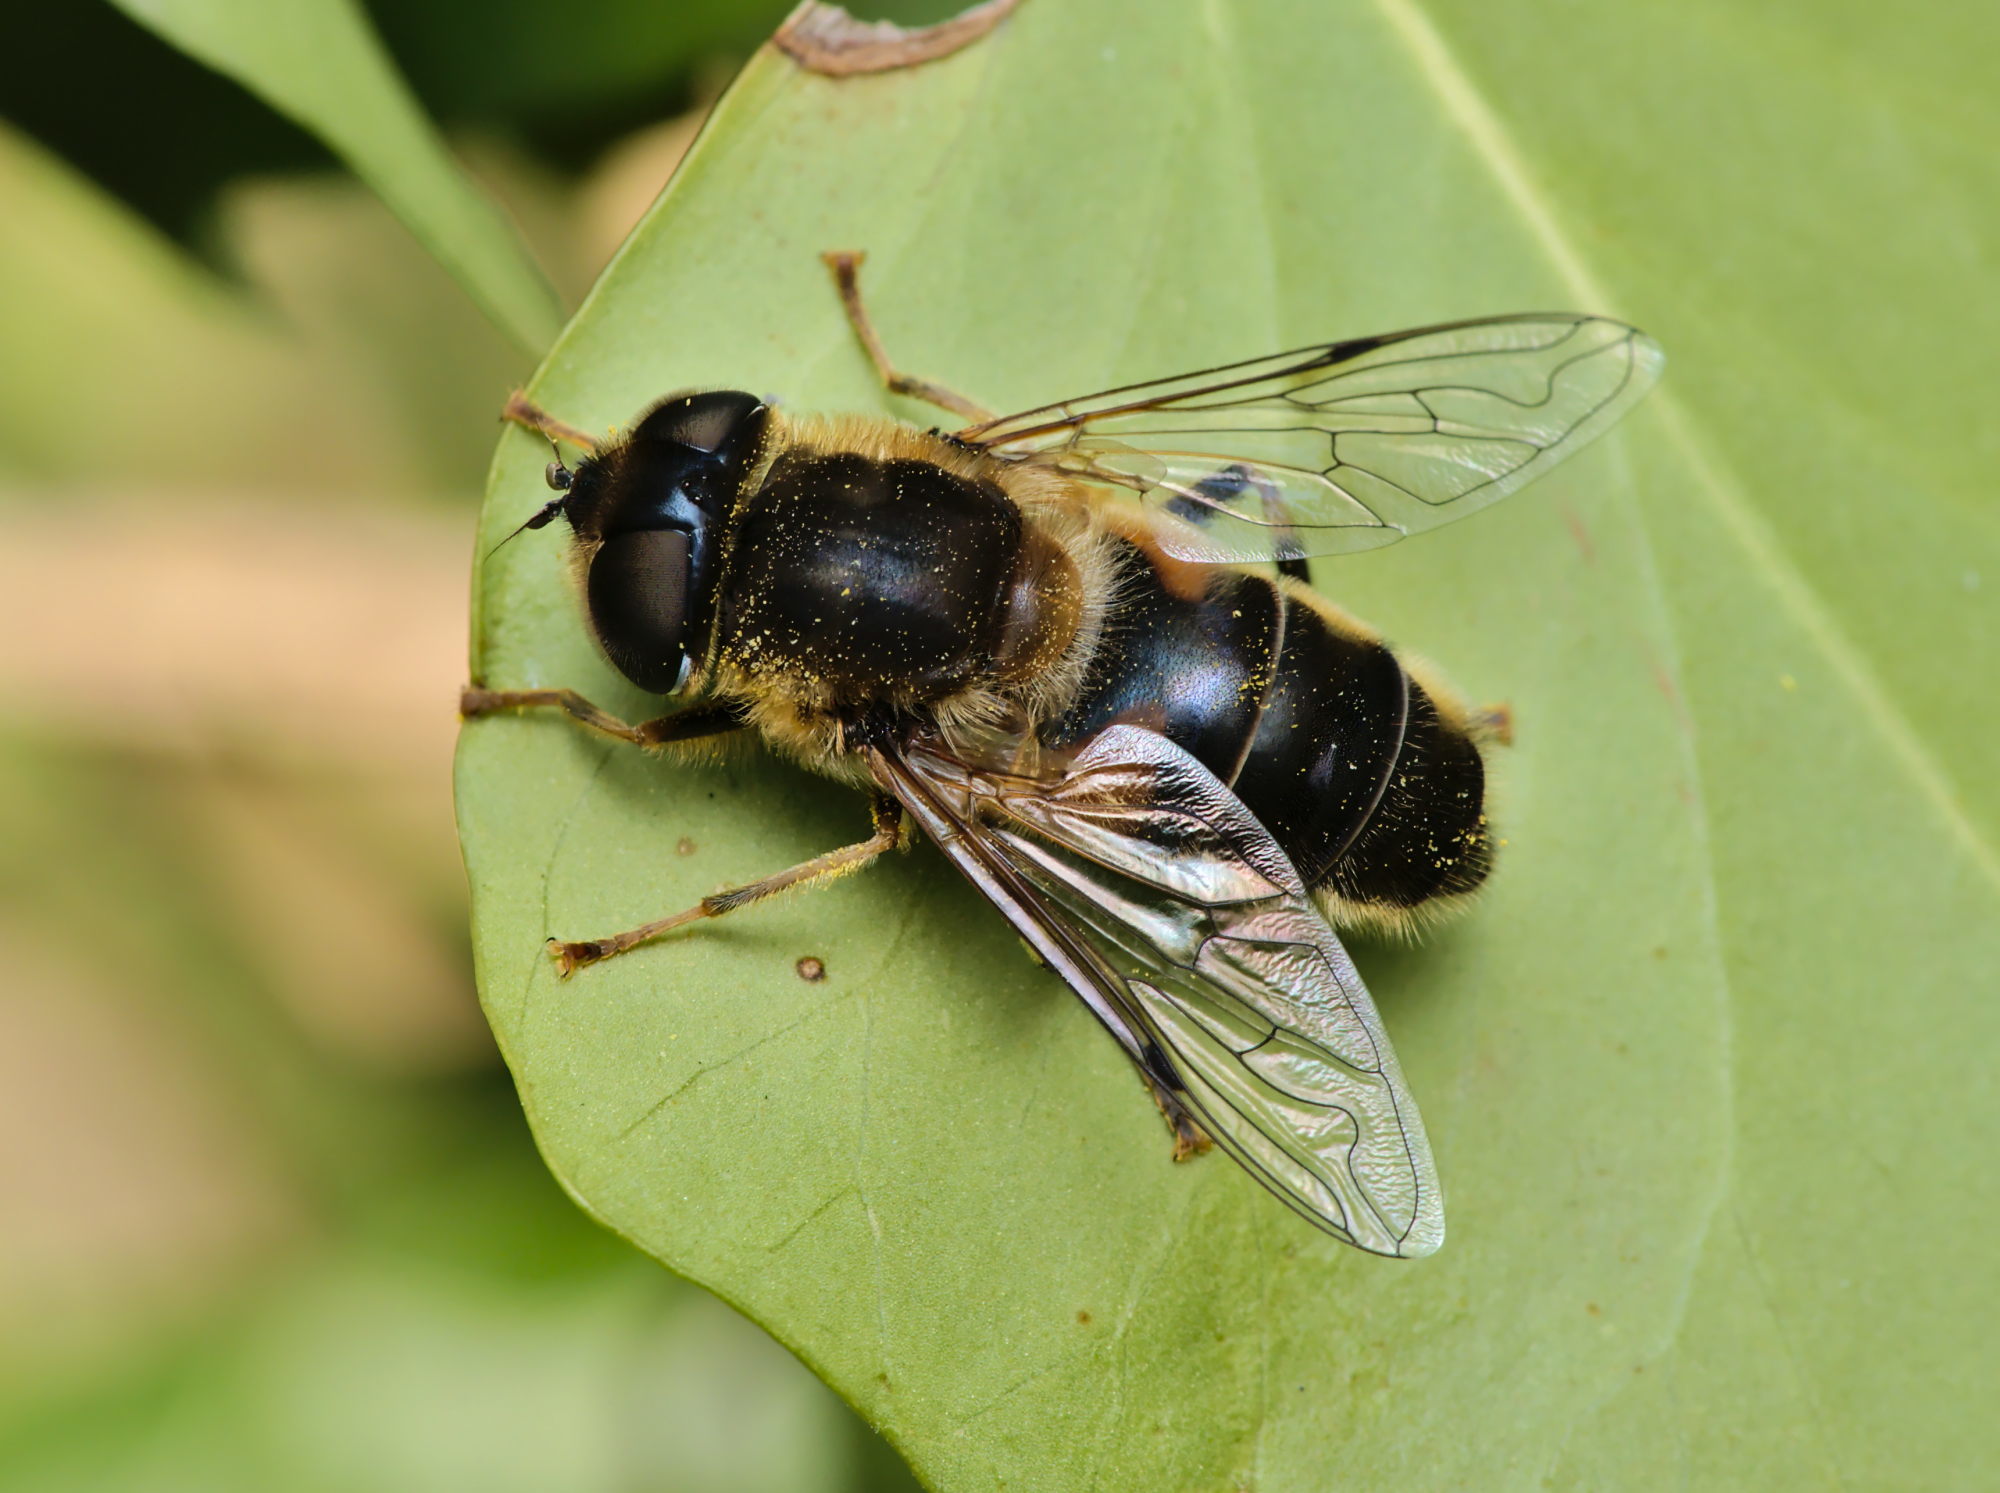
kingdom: Animalia
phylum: Arthropoda
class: Insecta
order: Diptera
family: Syrphidae
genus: Eristalis
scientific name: Eristalis pertinax
